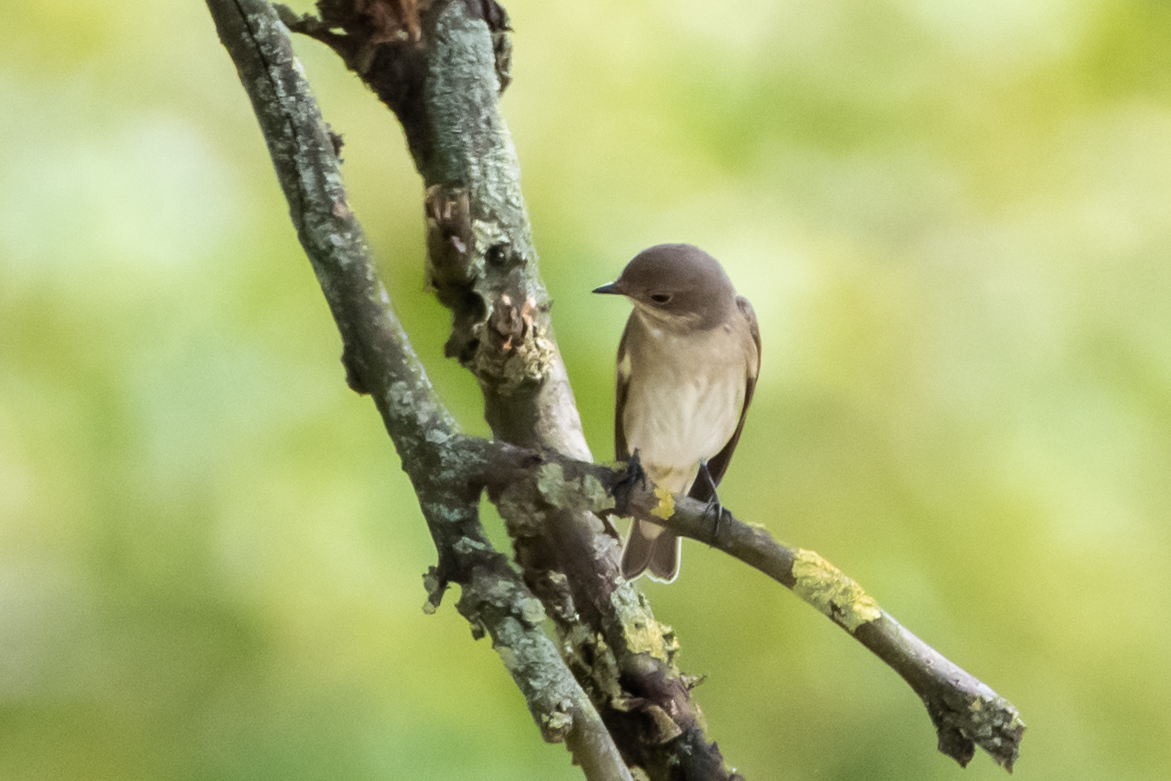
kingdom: Animalia
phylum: Chordata
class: Aves
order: Passeriformes
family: Muscicapidae
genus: Ficedula
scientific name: Ficedula hypoleuca
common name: European pied flycatcher
